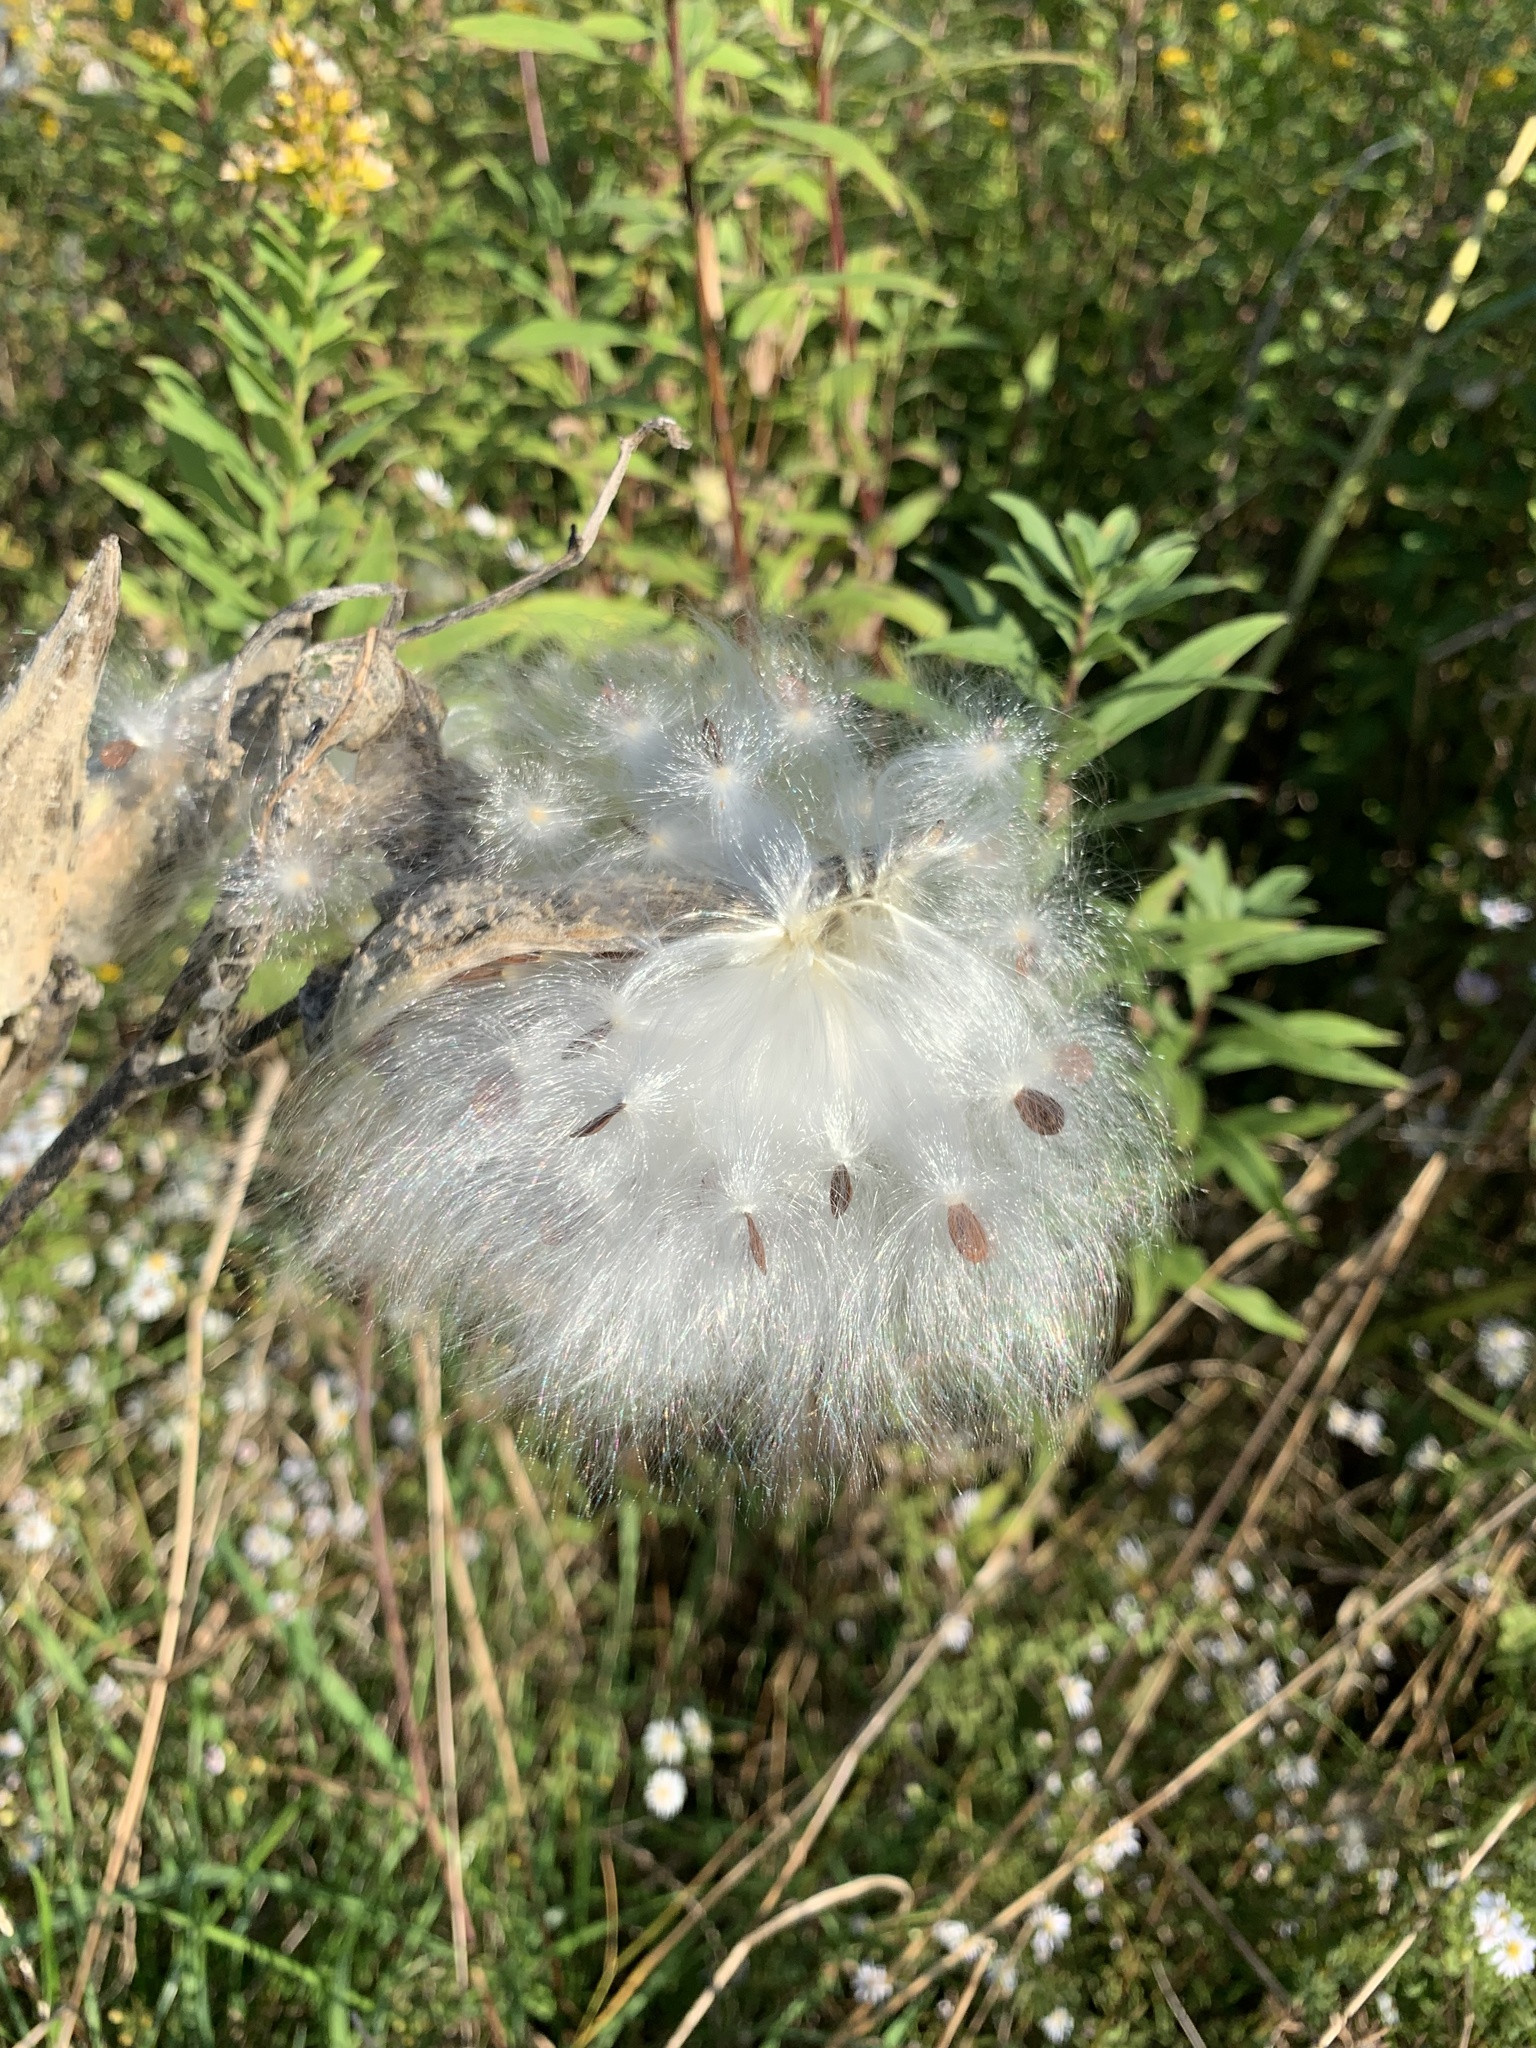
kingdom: Plantae
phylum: Tracheophyta
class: Magnoliopsida
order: Gentianales
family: Apocynaceae
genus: Asclepias
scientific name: Asclepias syriaca
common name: Common milkweed
